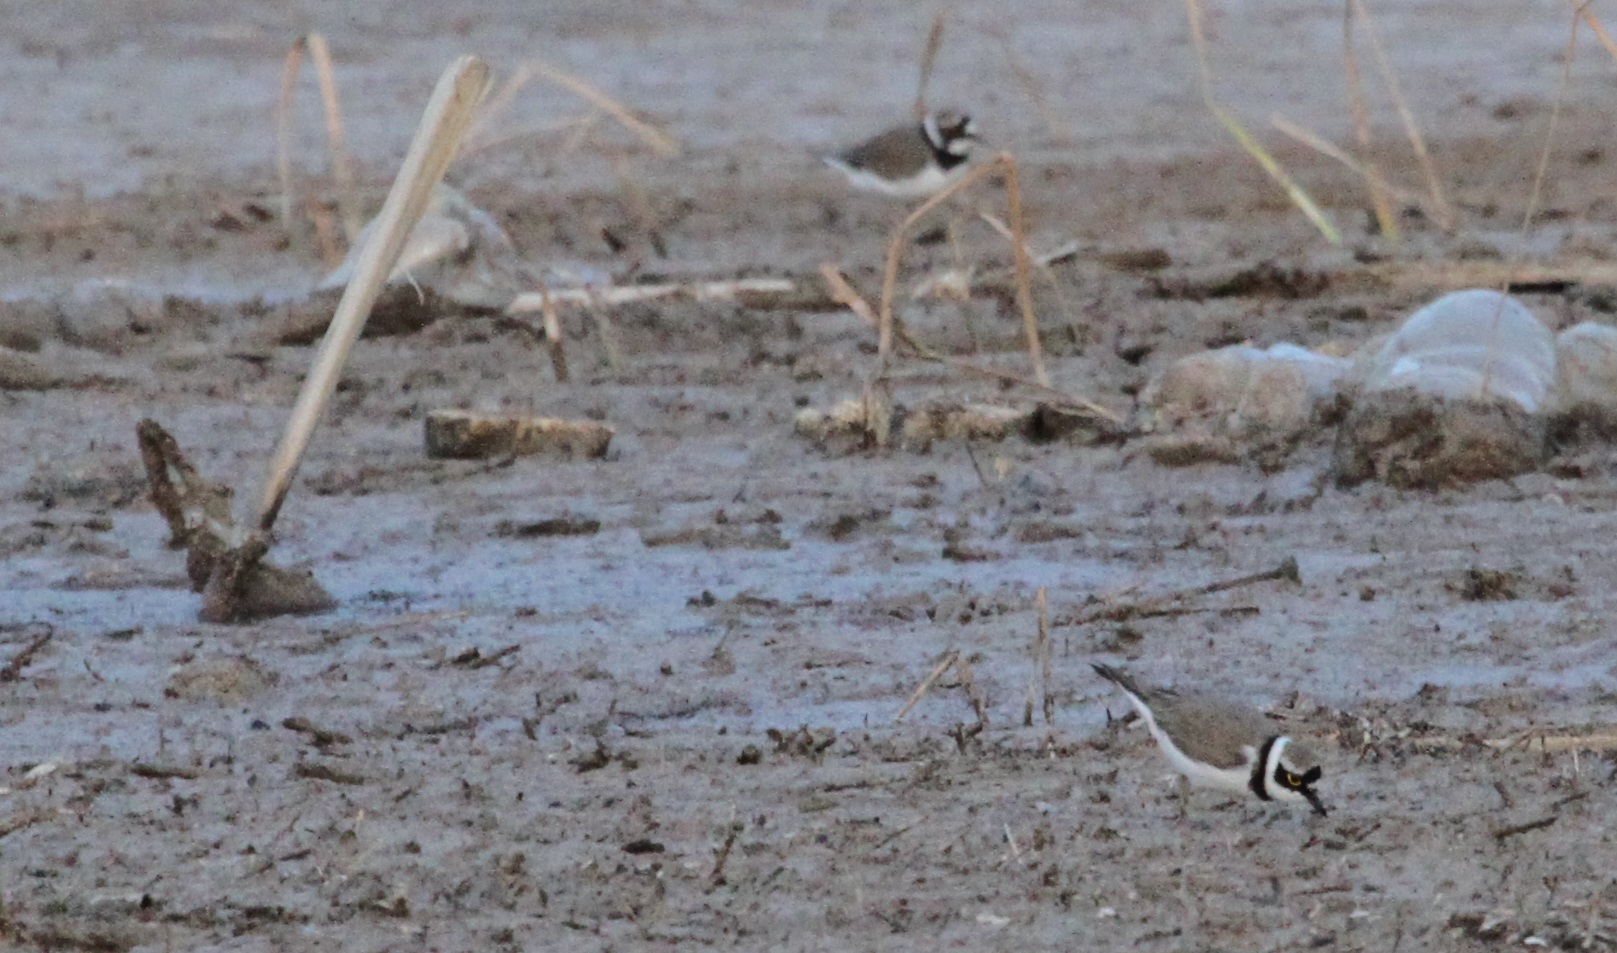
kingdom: Animalia
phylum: Chordata
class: Aves
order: Charadriiformes
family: Charadriidae
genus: Charadrius
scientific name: Charadrius dubius
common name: Little ringed plover
